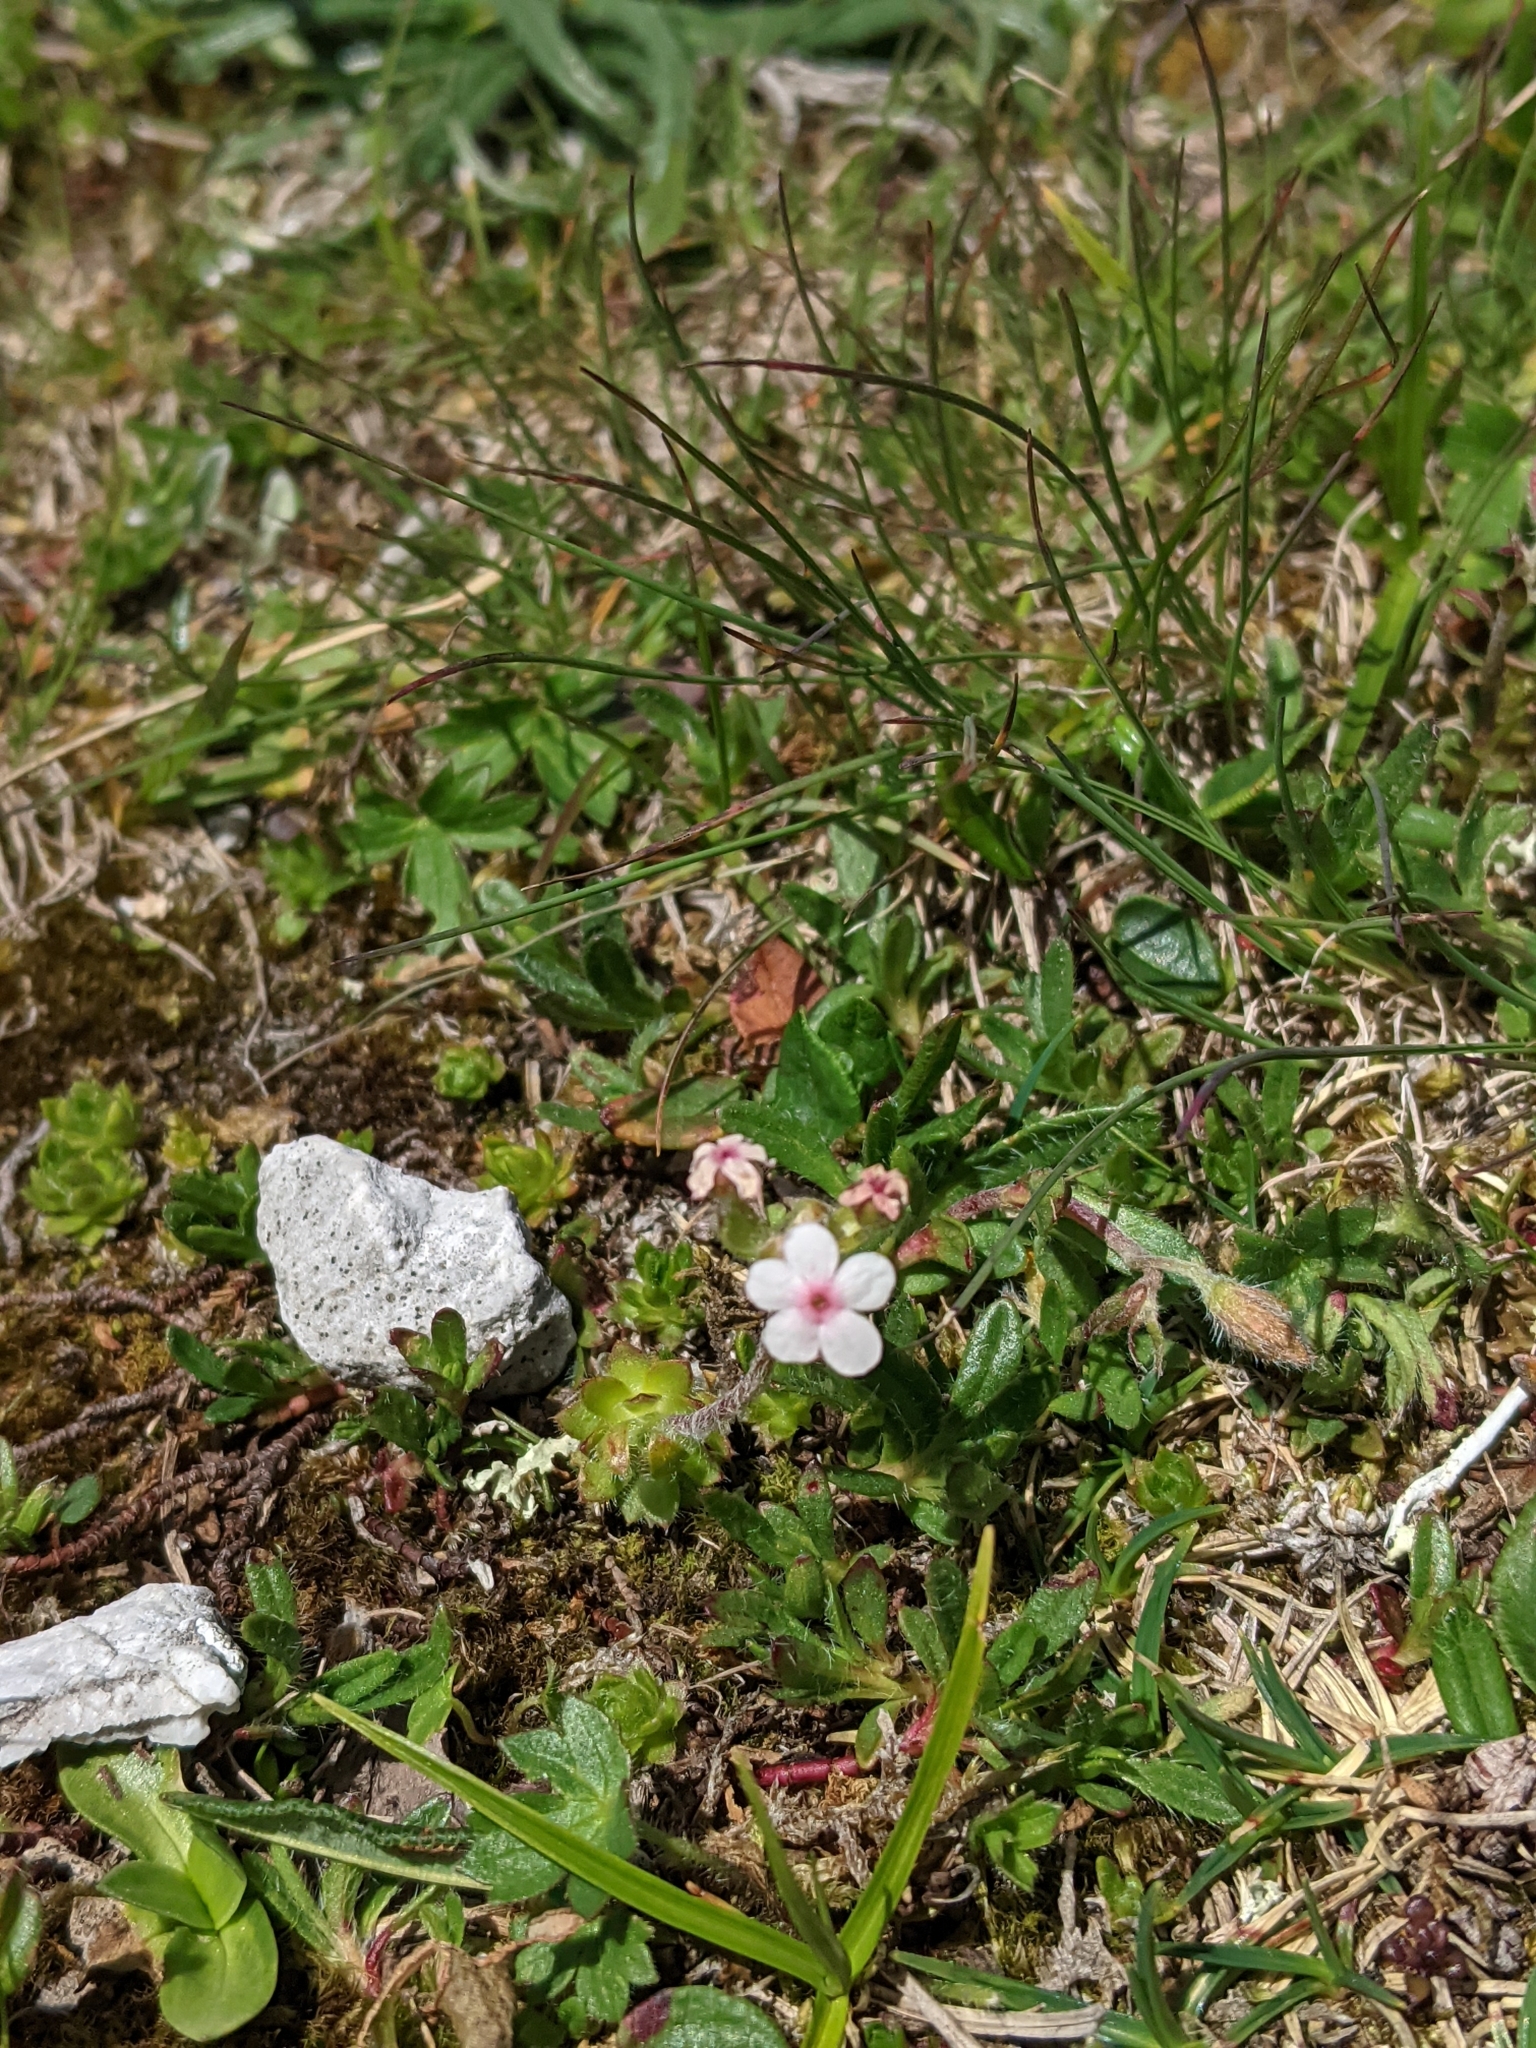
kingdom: Plantae
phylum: Tracheophyta
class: Magnoliopsida
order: Ericales
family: Primulaceae
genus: Androsace
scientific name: Androsace chamaejasme
